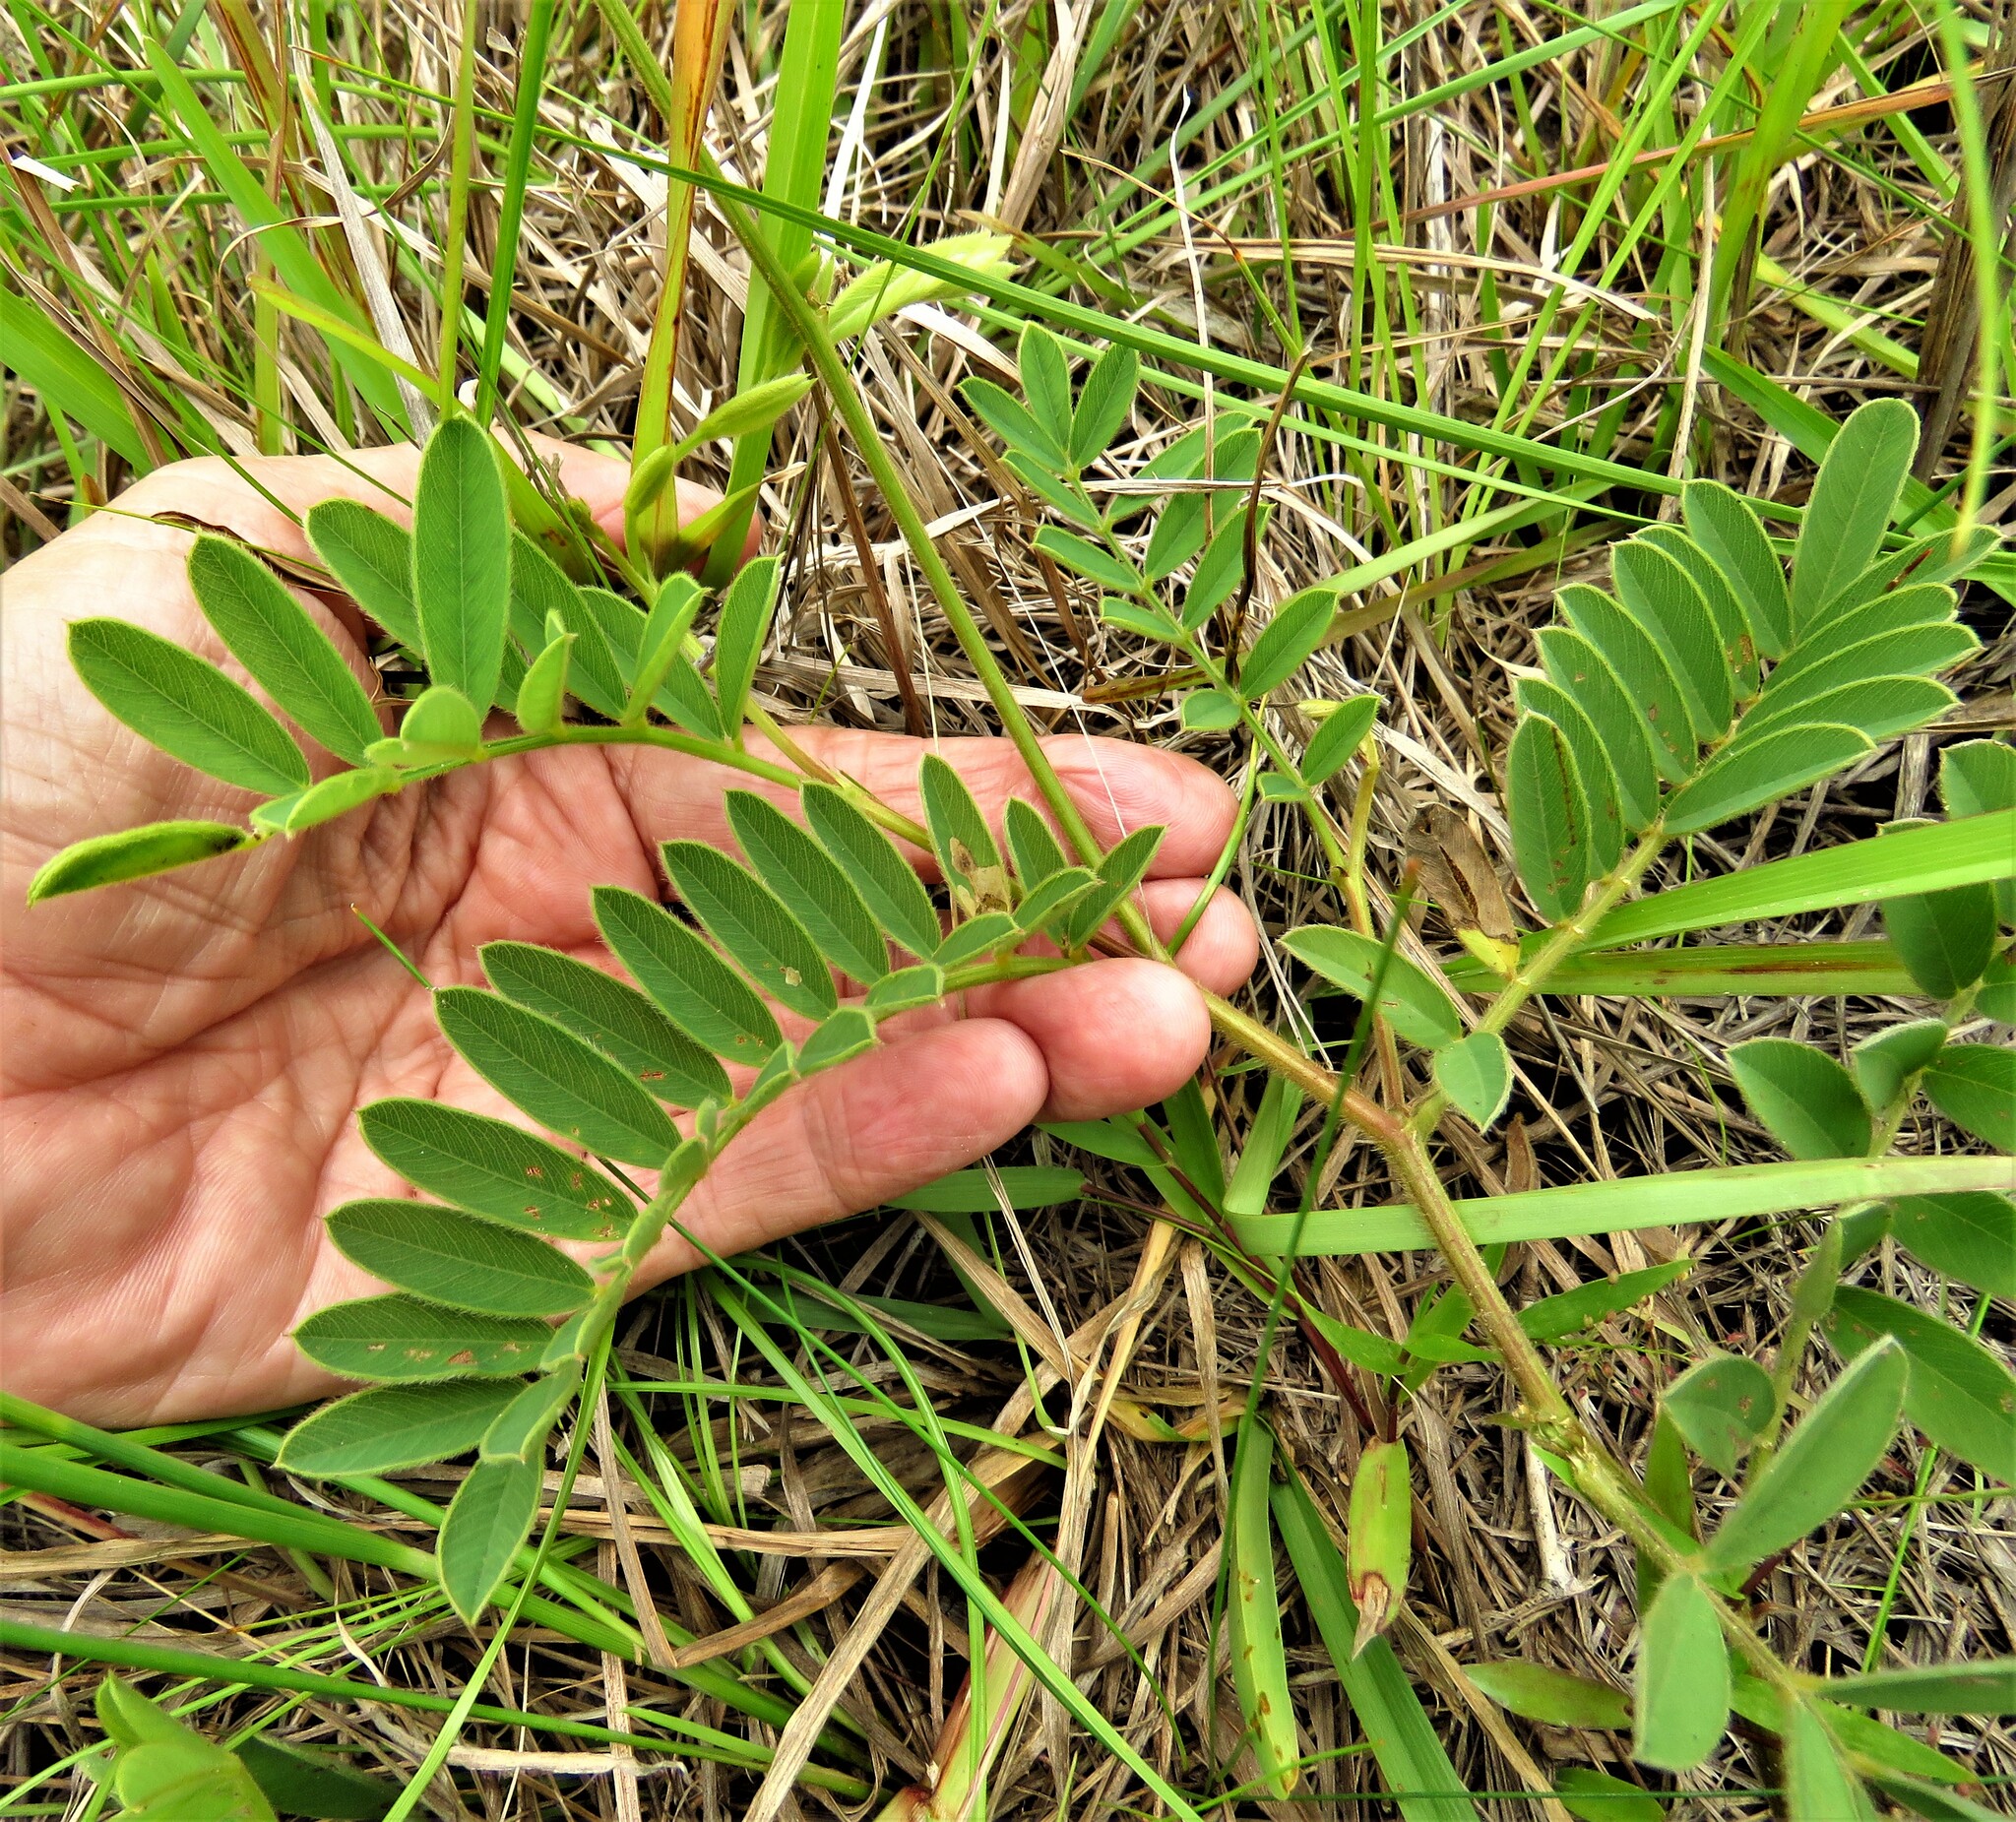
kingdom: Plantae
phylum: Tracheophyta
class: Magnoliopsida
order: Fabales
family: Fabaceae
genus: Tephrosia
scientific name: Tephrosia onobrychoides
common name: Multi-bloom hoary-pea
